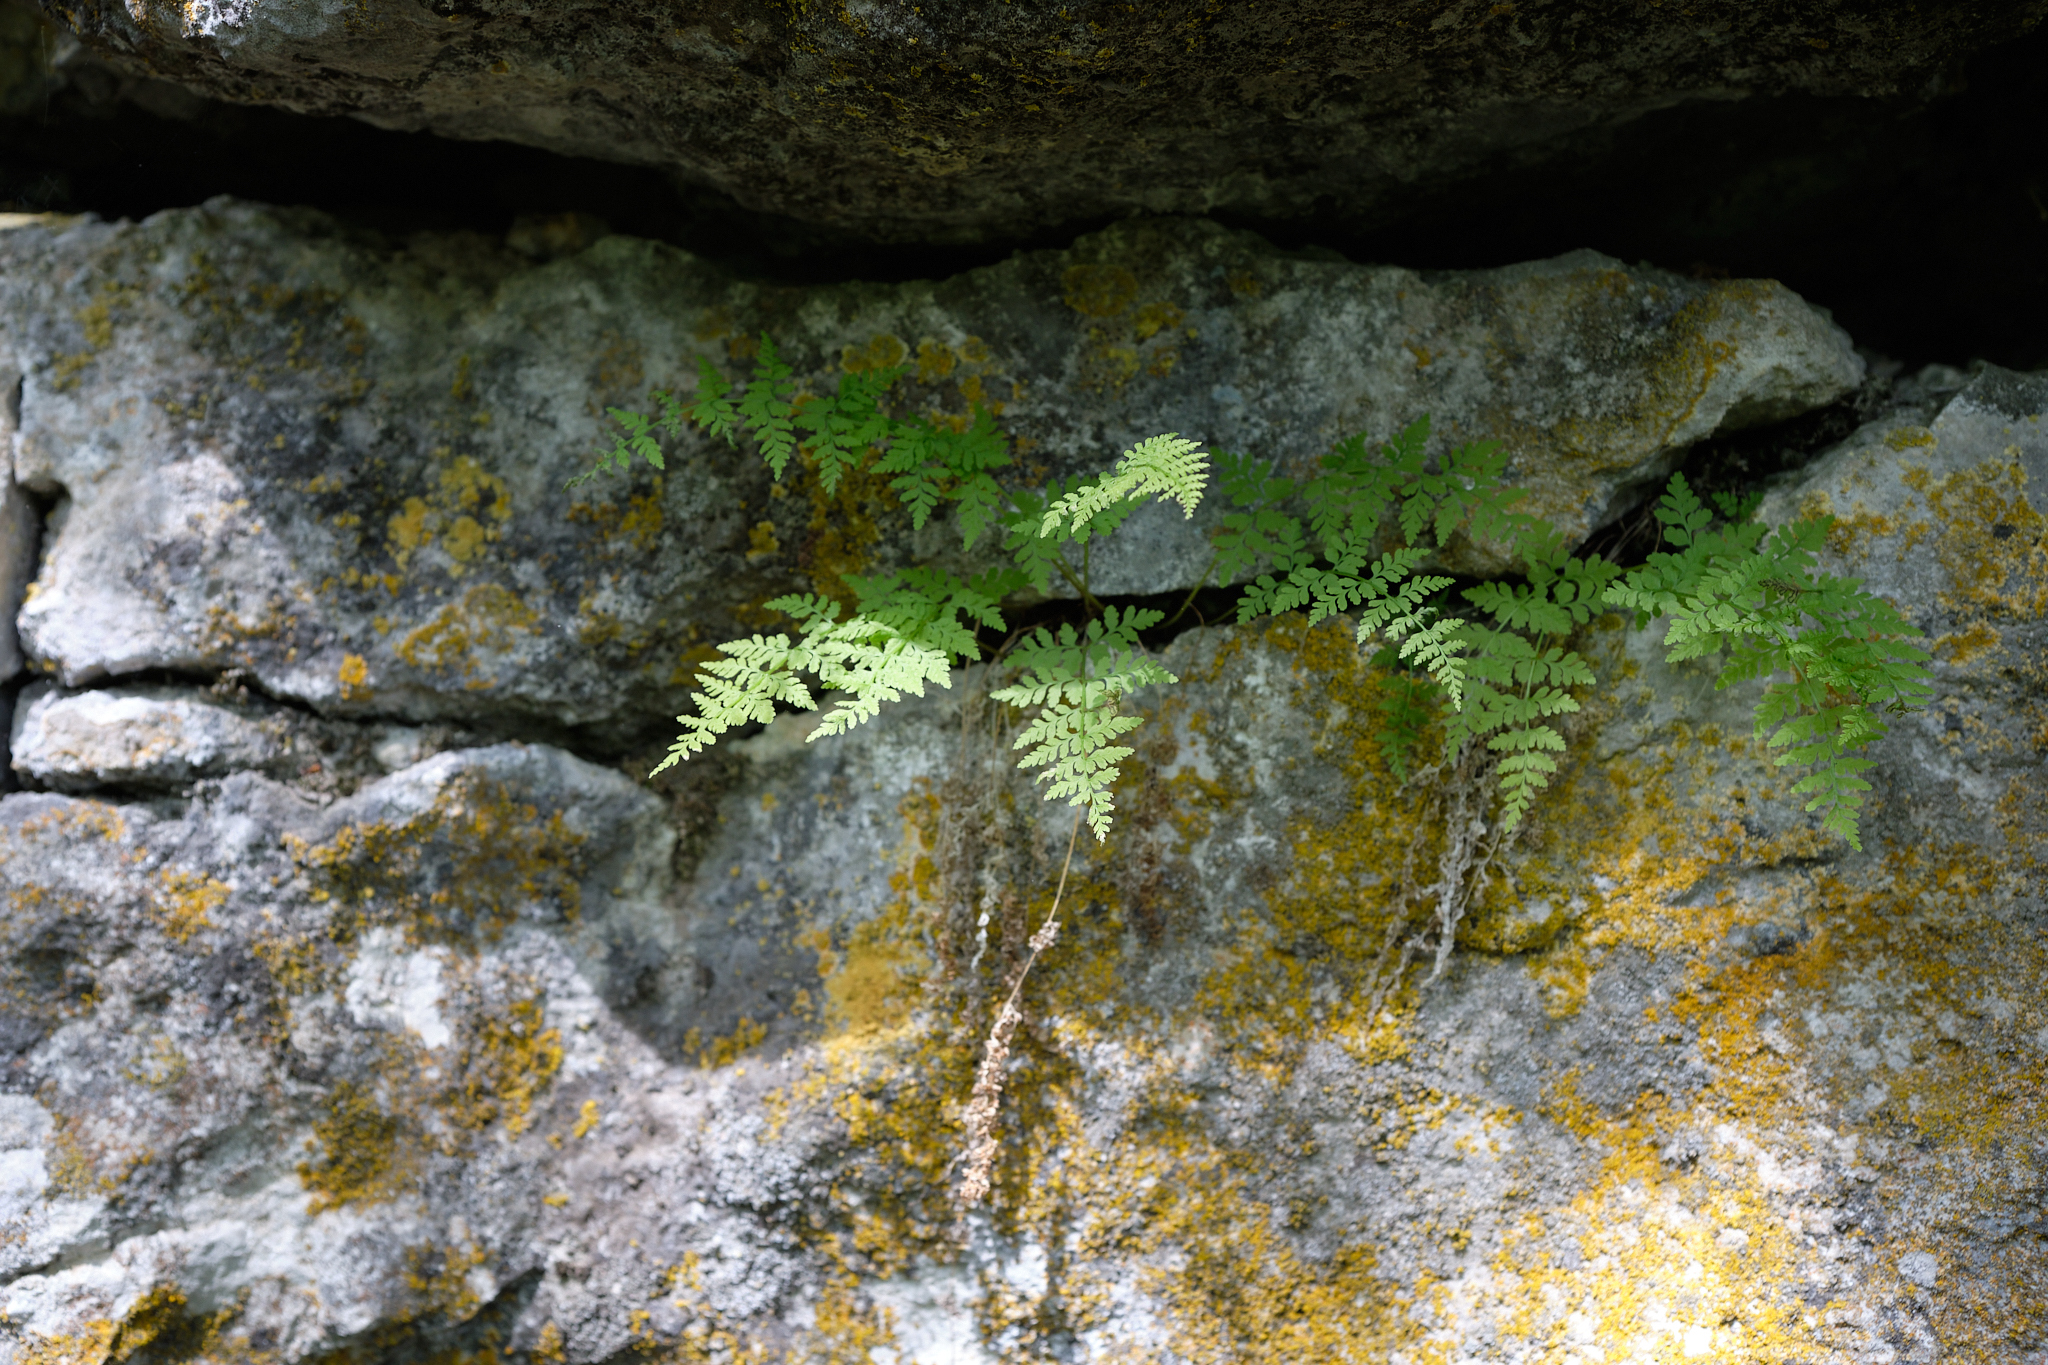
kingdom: Plantae
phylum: Tracheophyta
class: Polypodiopsida
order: Polypodiales
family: Cystopteridaceae
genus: Cystopteris
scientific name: Cystopteris fragilis
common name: Brittle bladder fern
